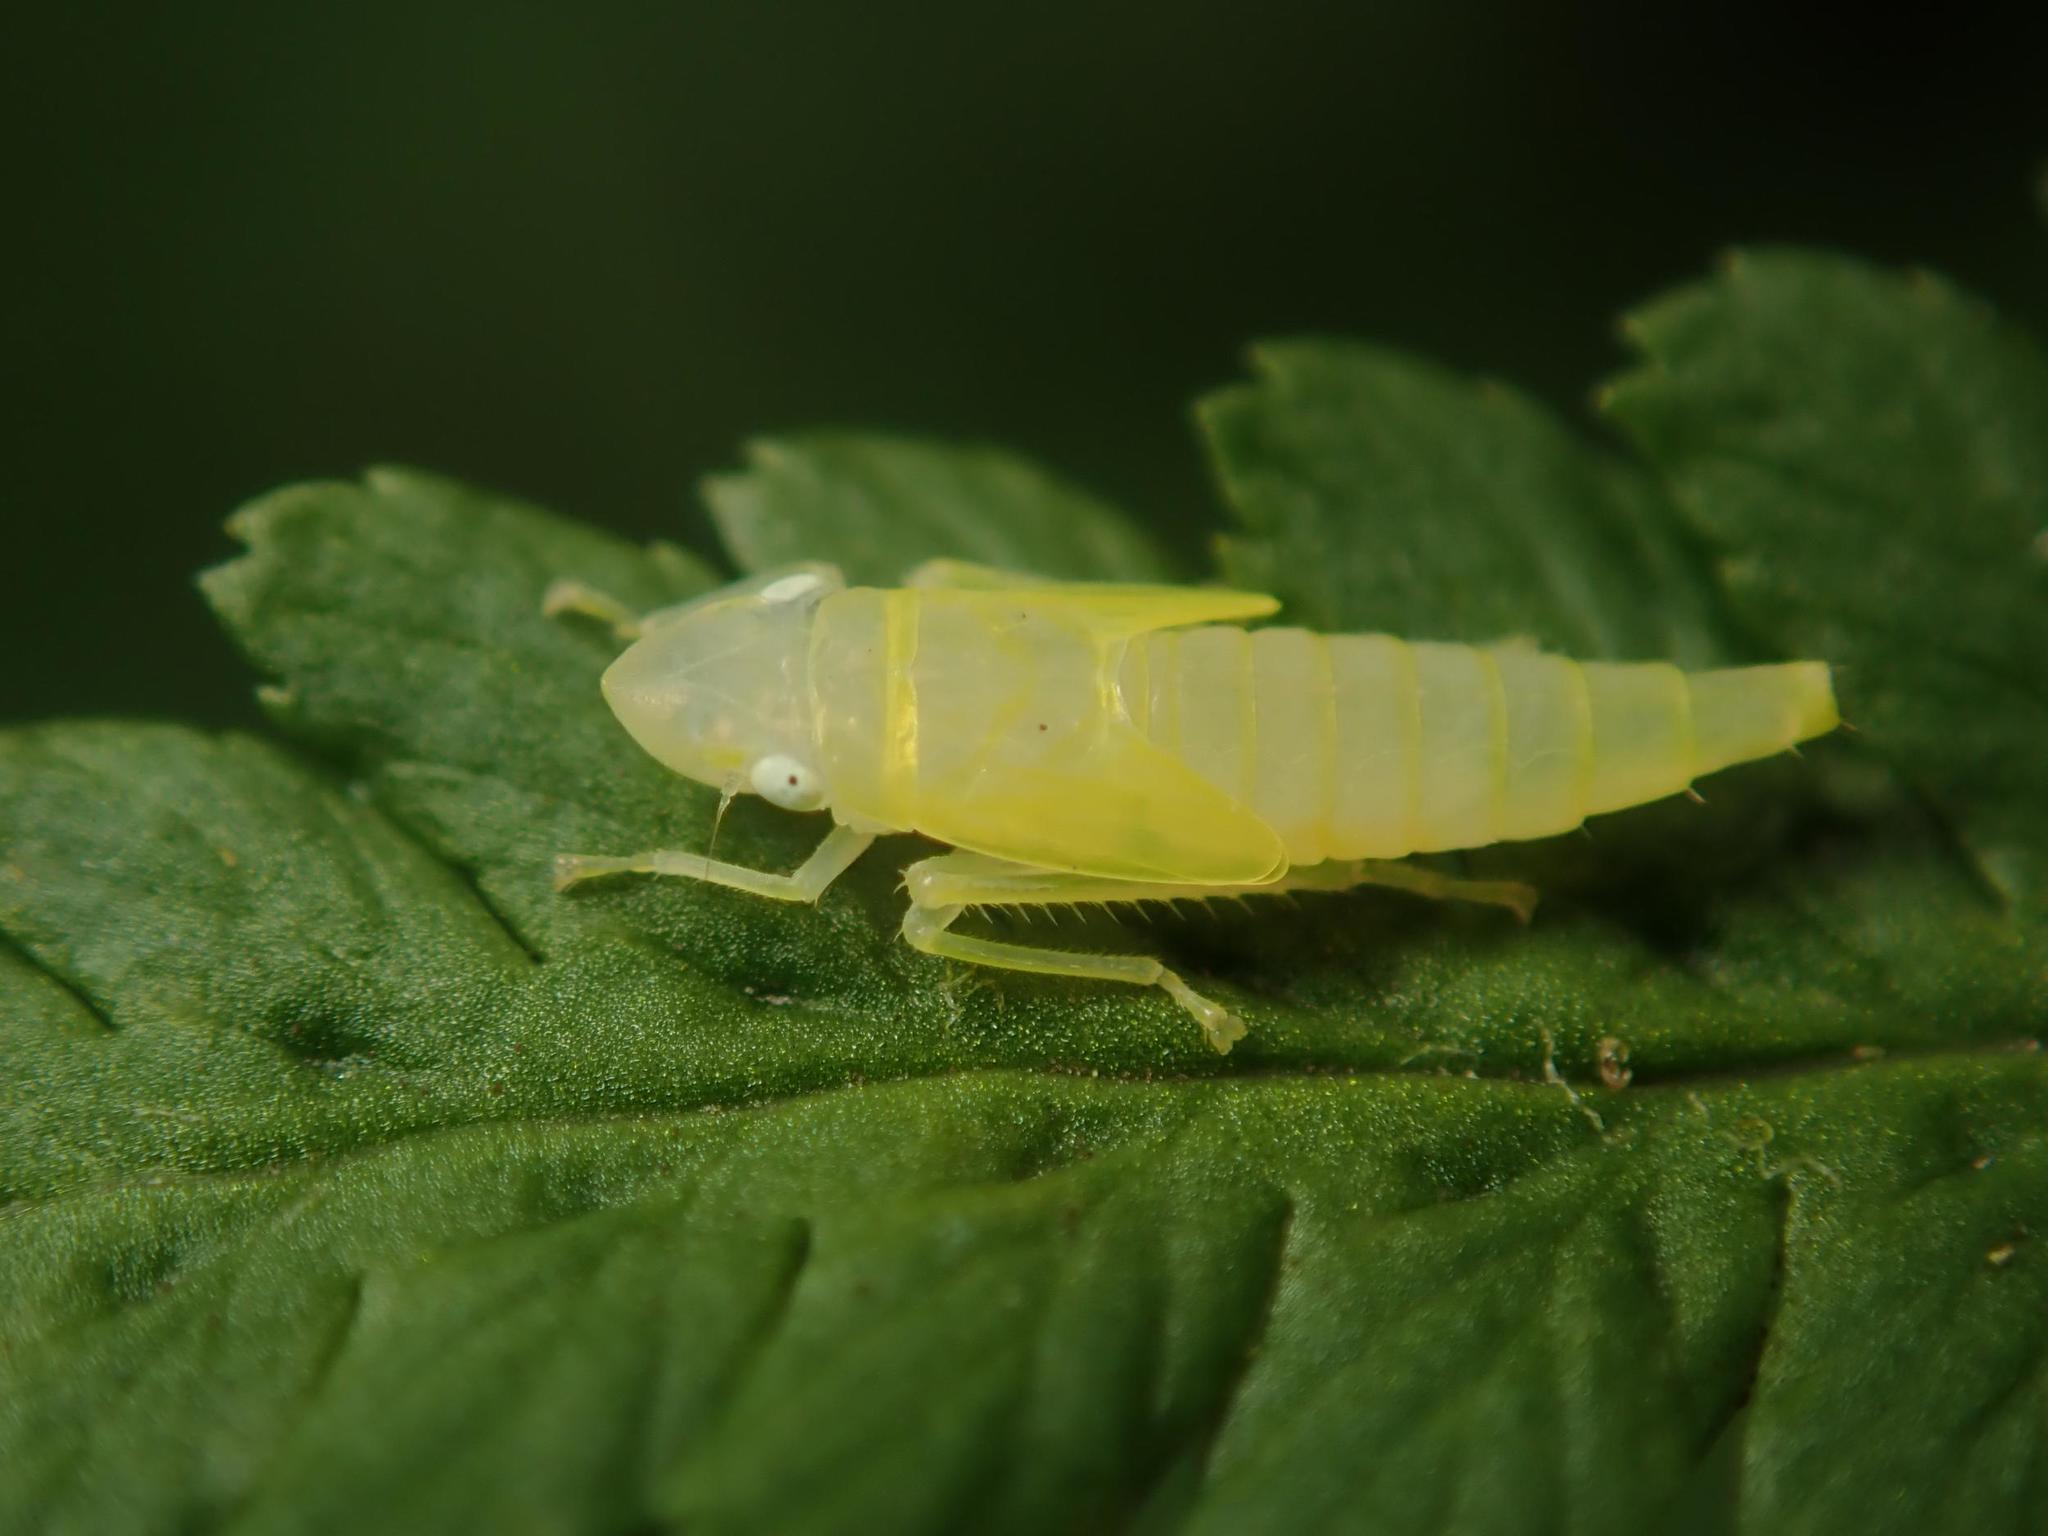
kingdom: Animalia
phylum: Arthropoda
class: Insecta
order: Hemiptera
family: Cicadellidae
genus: Graphocephala
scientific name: Graphocephala fennahi
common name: Rhododendron leafhopper
